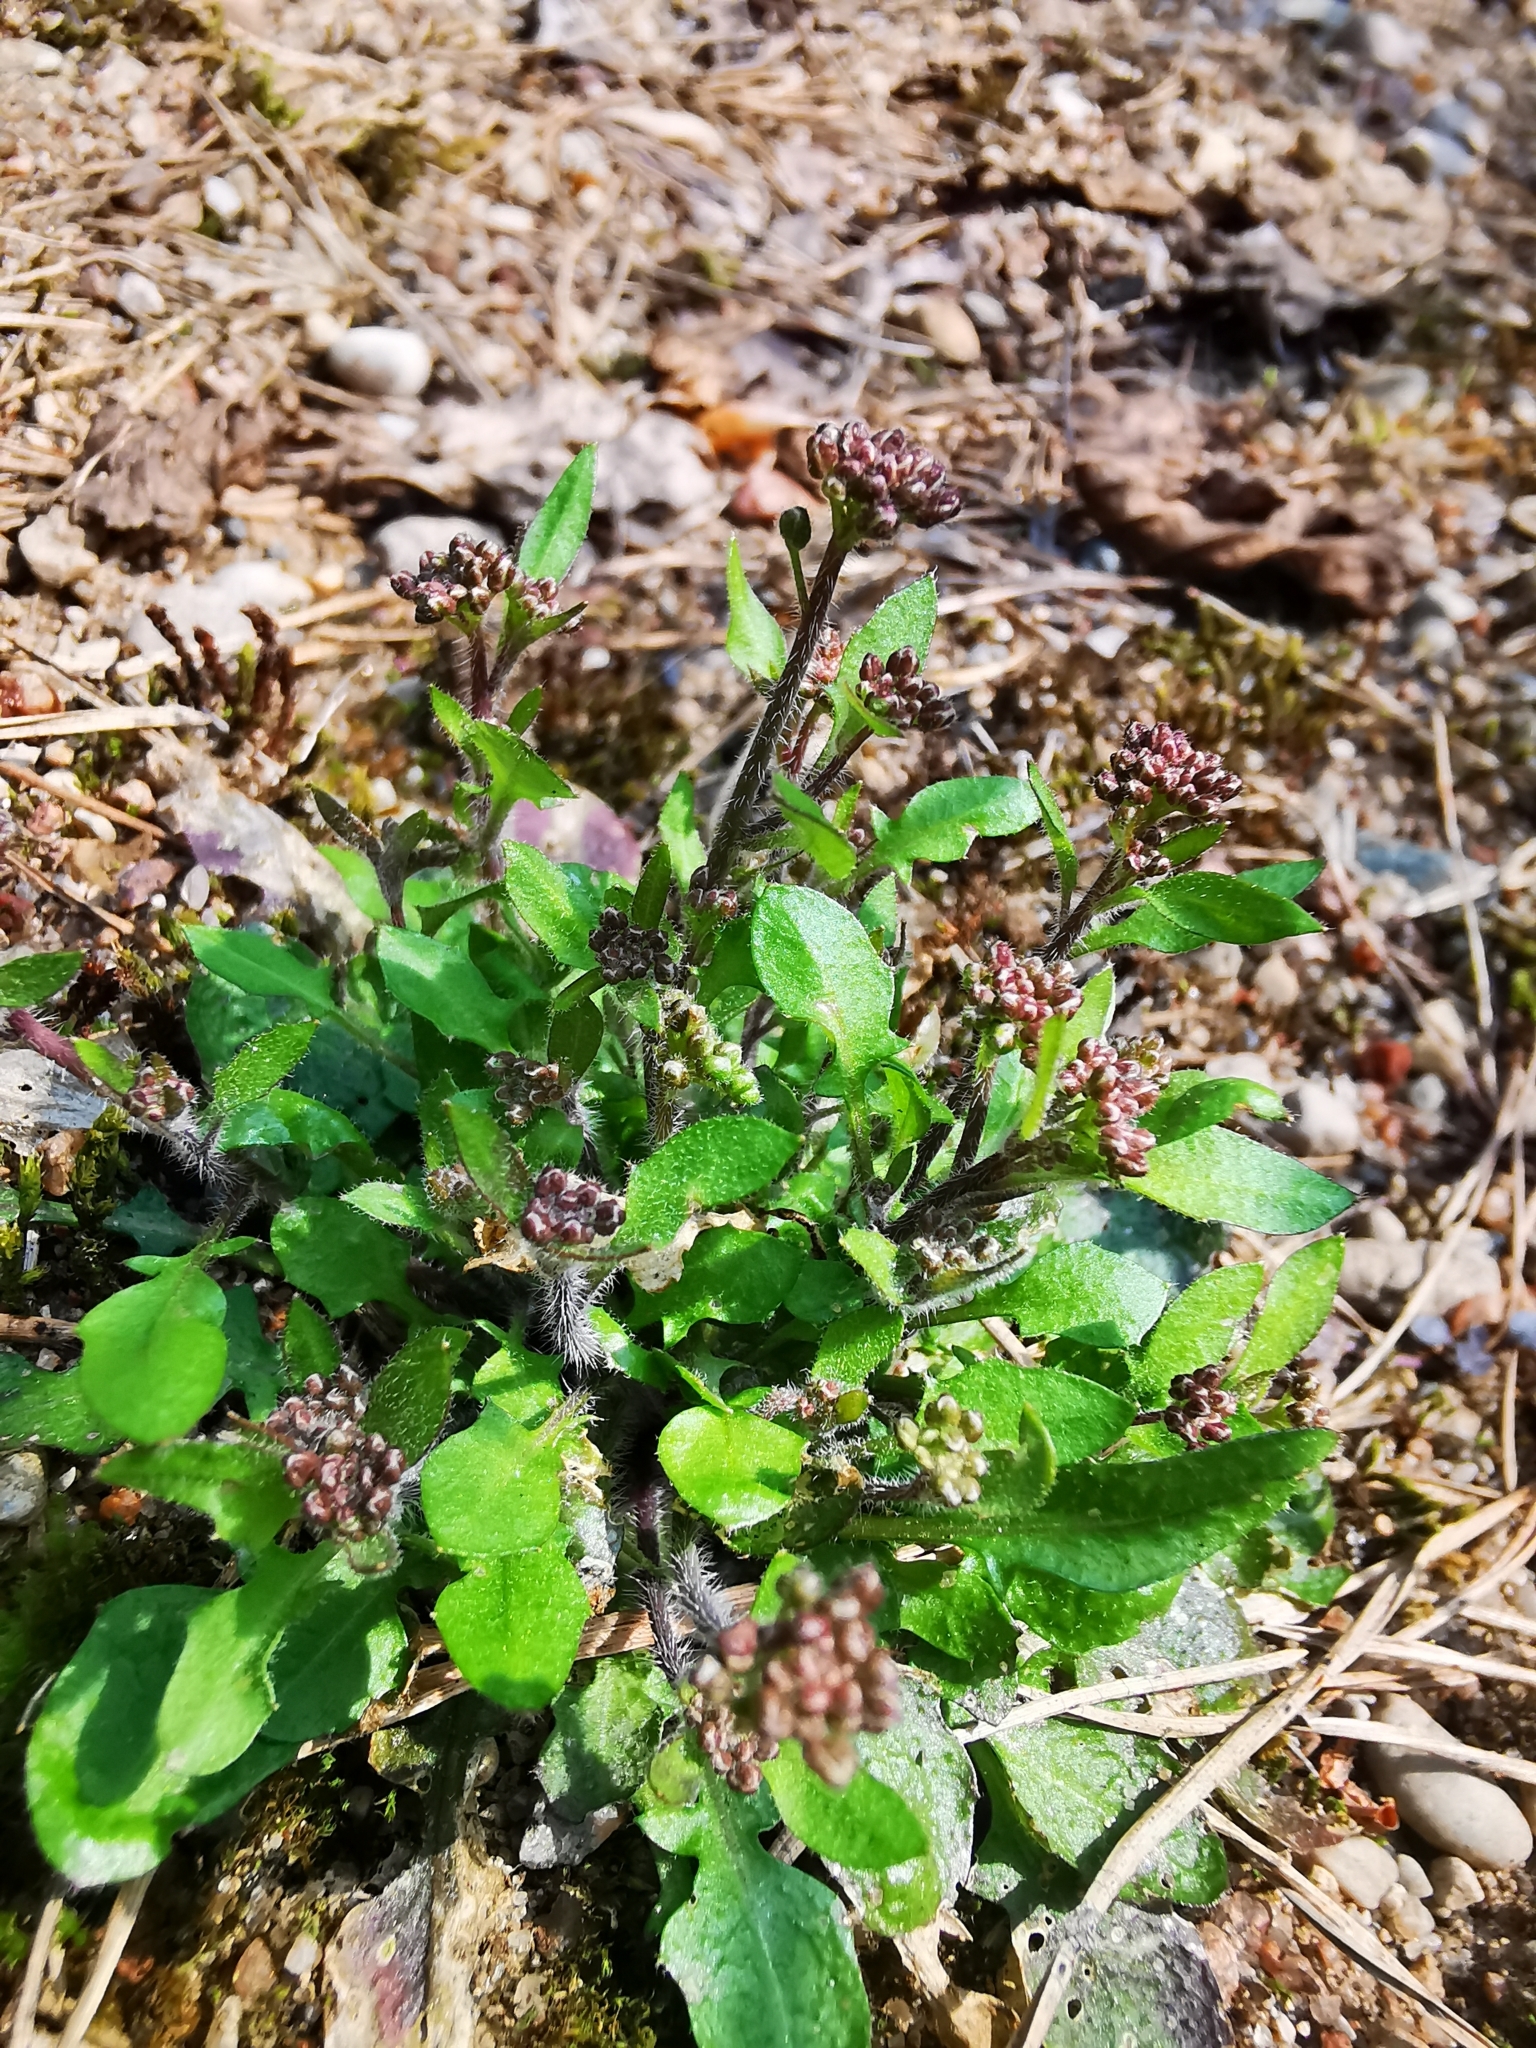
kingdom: Plantae
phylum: Tracheophyta
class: Magnoliopsida
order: Brassicales
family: Brassicaceae
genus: Arabidopsis
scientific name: Arabidopsis arenosa
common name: Sand rock-cress
